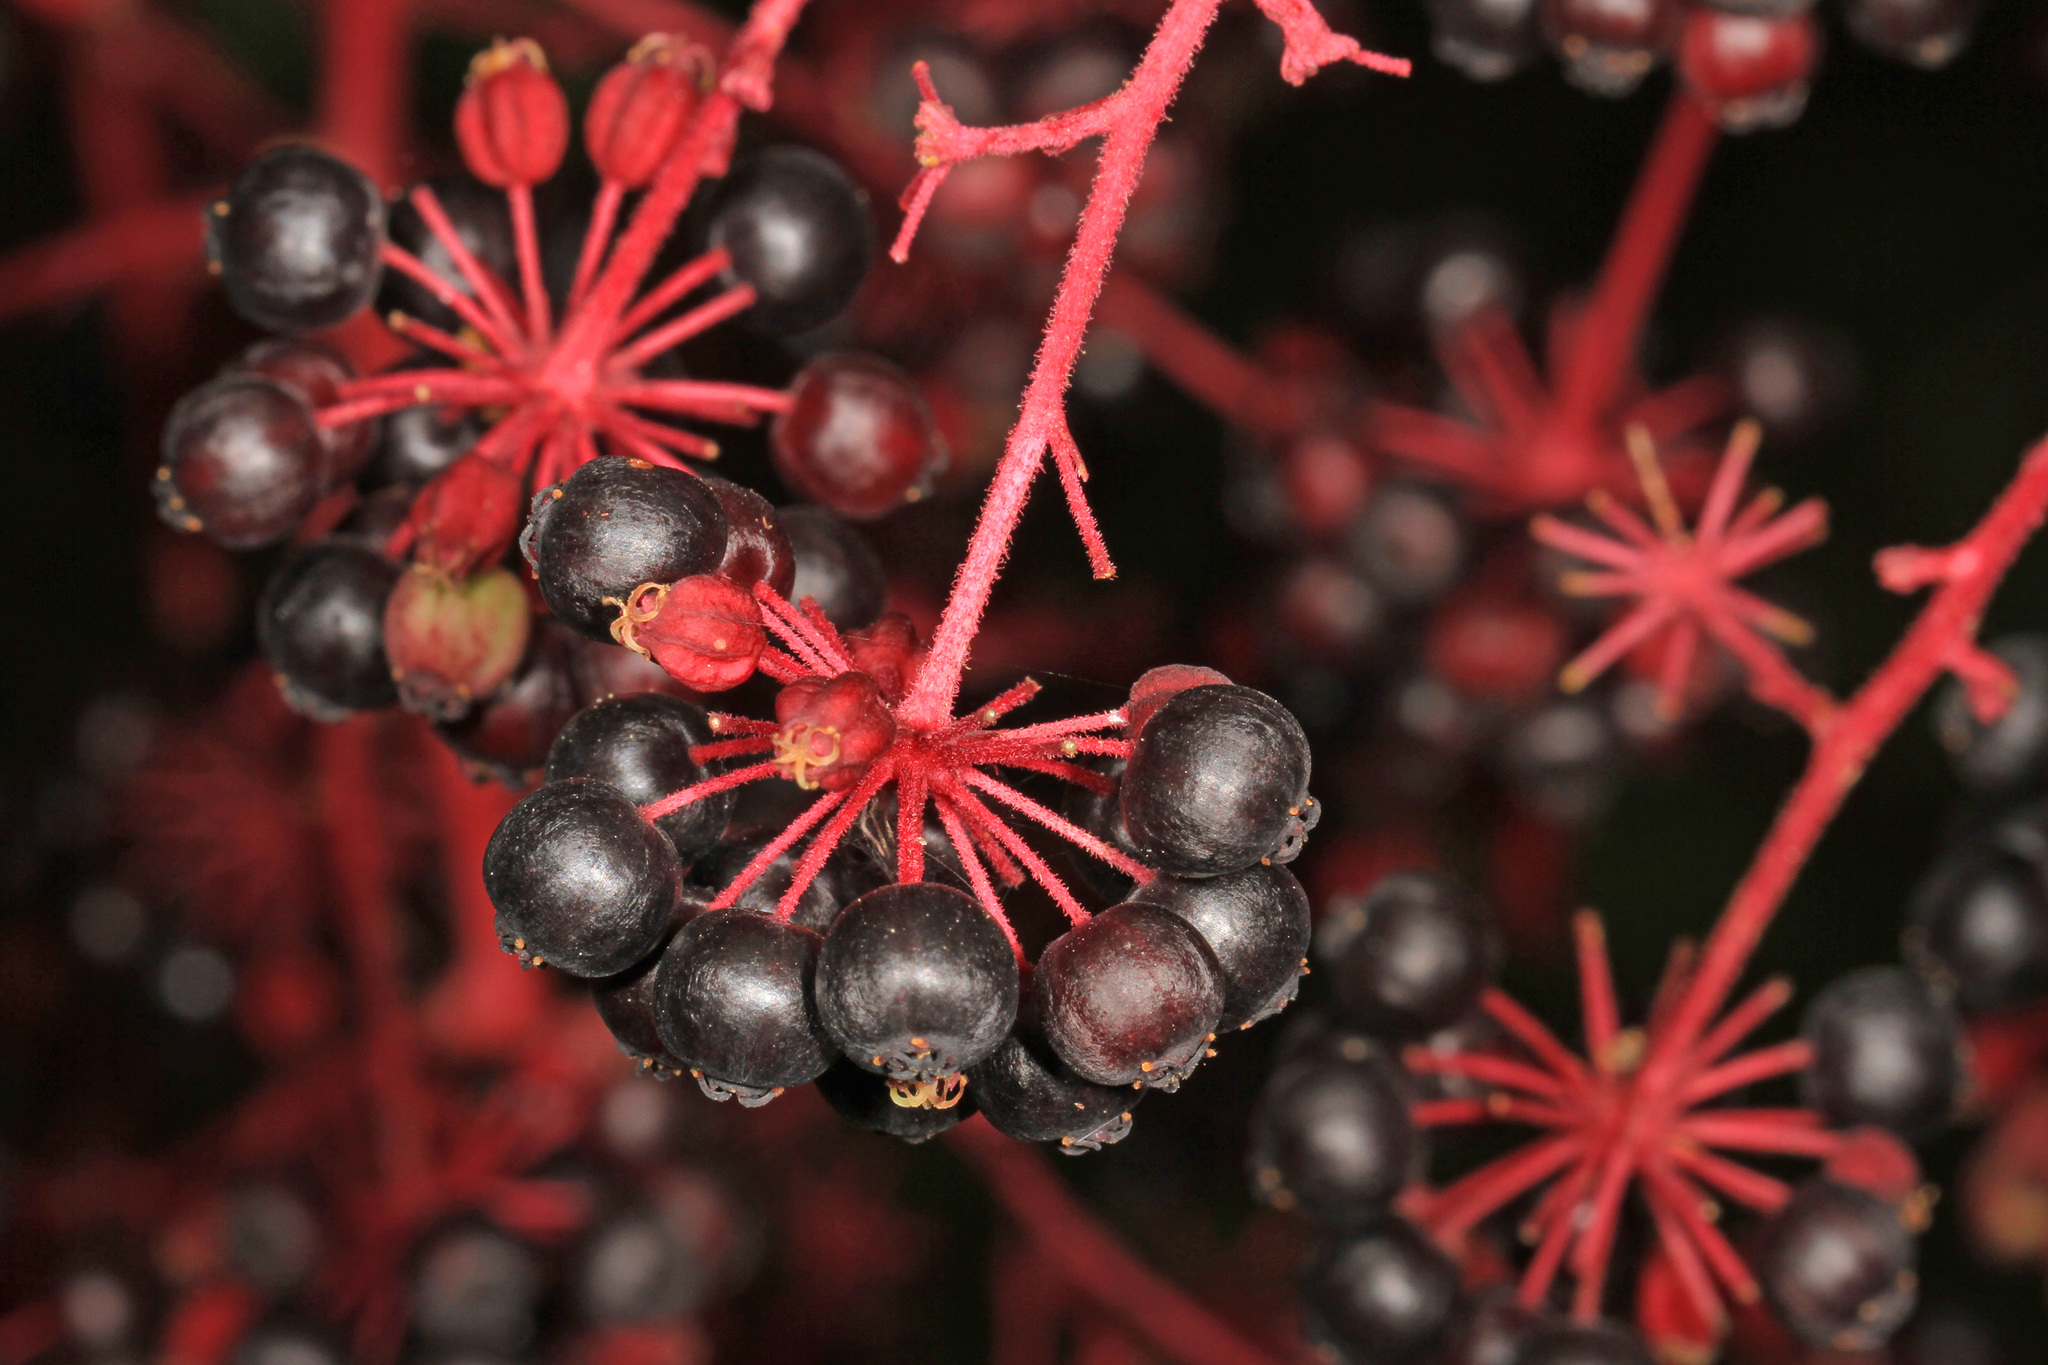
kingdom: Plantae
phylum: Tracheophyta
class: Magnoliopsida
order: Apiales
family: Araliaceae
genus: Aralia
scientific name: Aralia spinosa
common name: Hercules'-club
